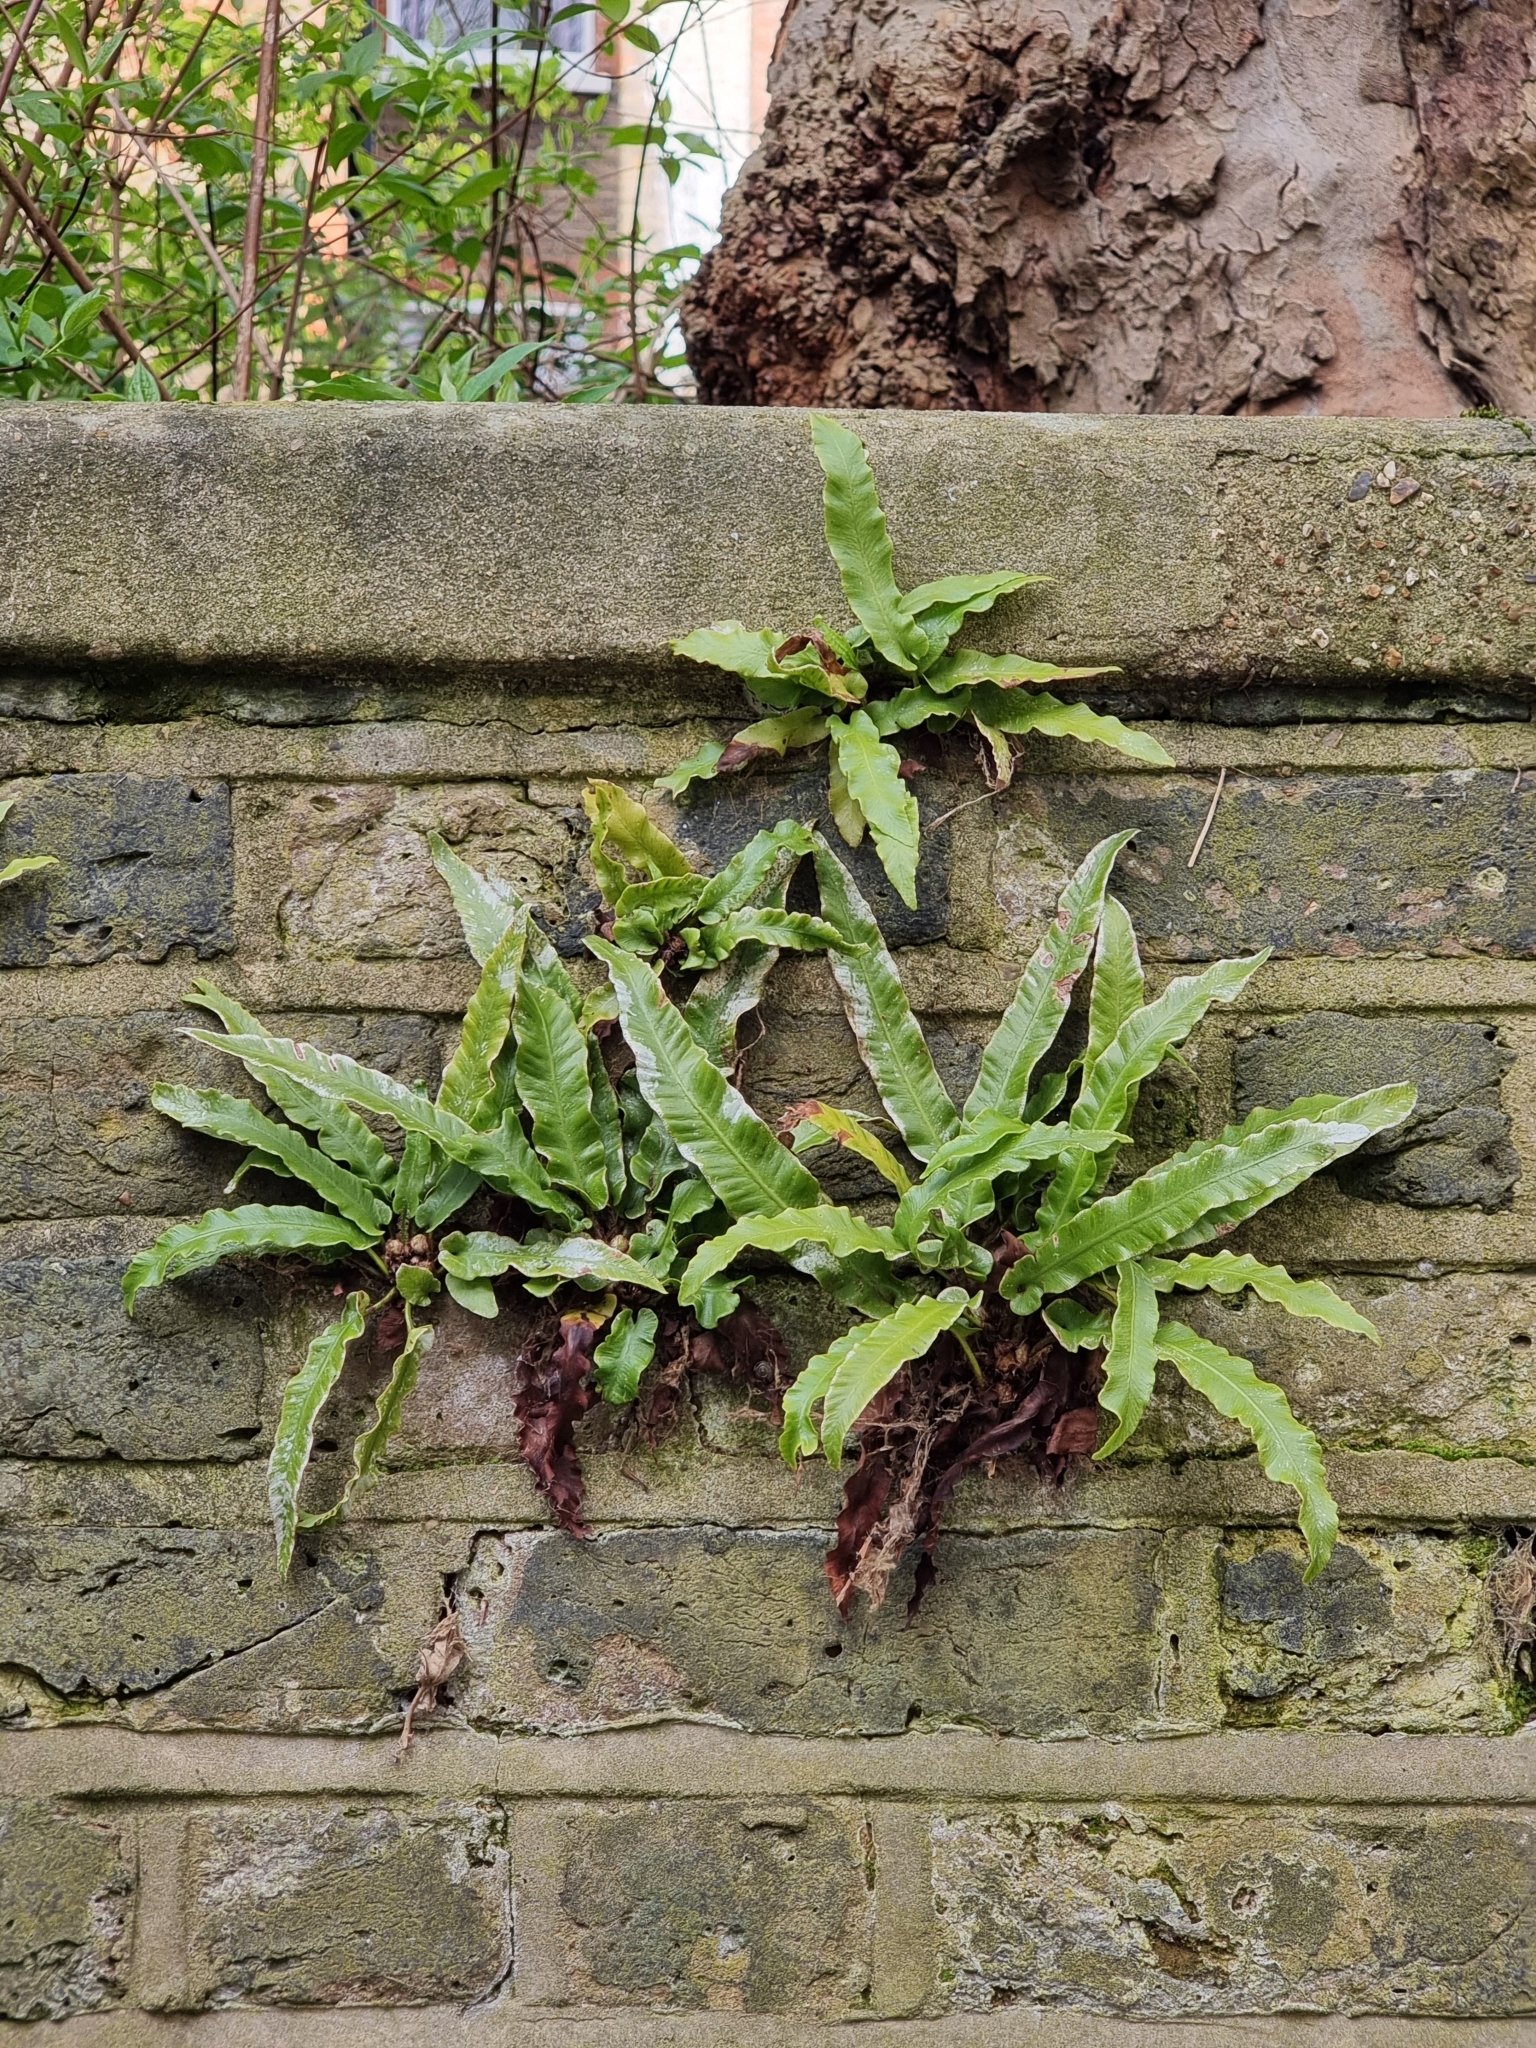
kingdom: Plantae
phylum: Tracheophyta
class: Polypodiopsida
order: Polypodiales
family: Aspleniaceae
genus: Asplenium
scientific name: Asplenium scolopendrium
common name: Hart's-tongue fern
